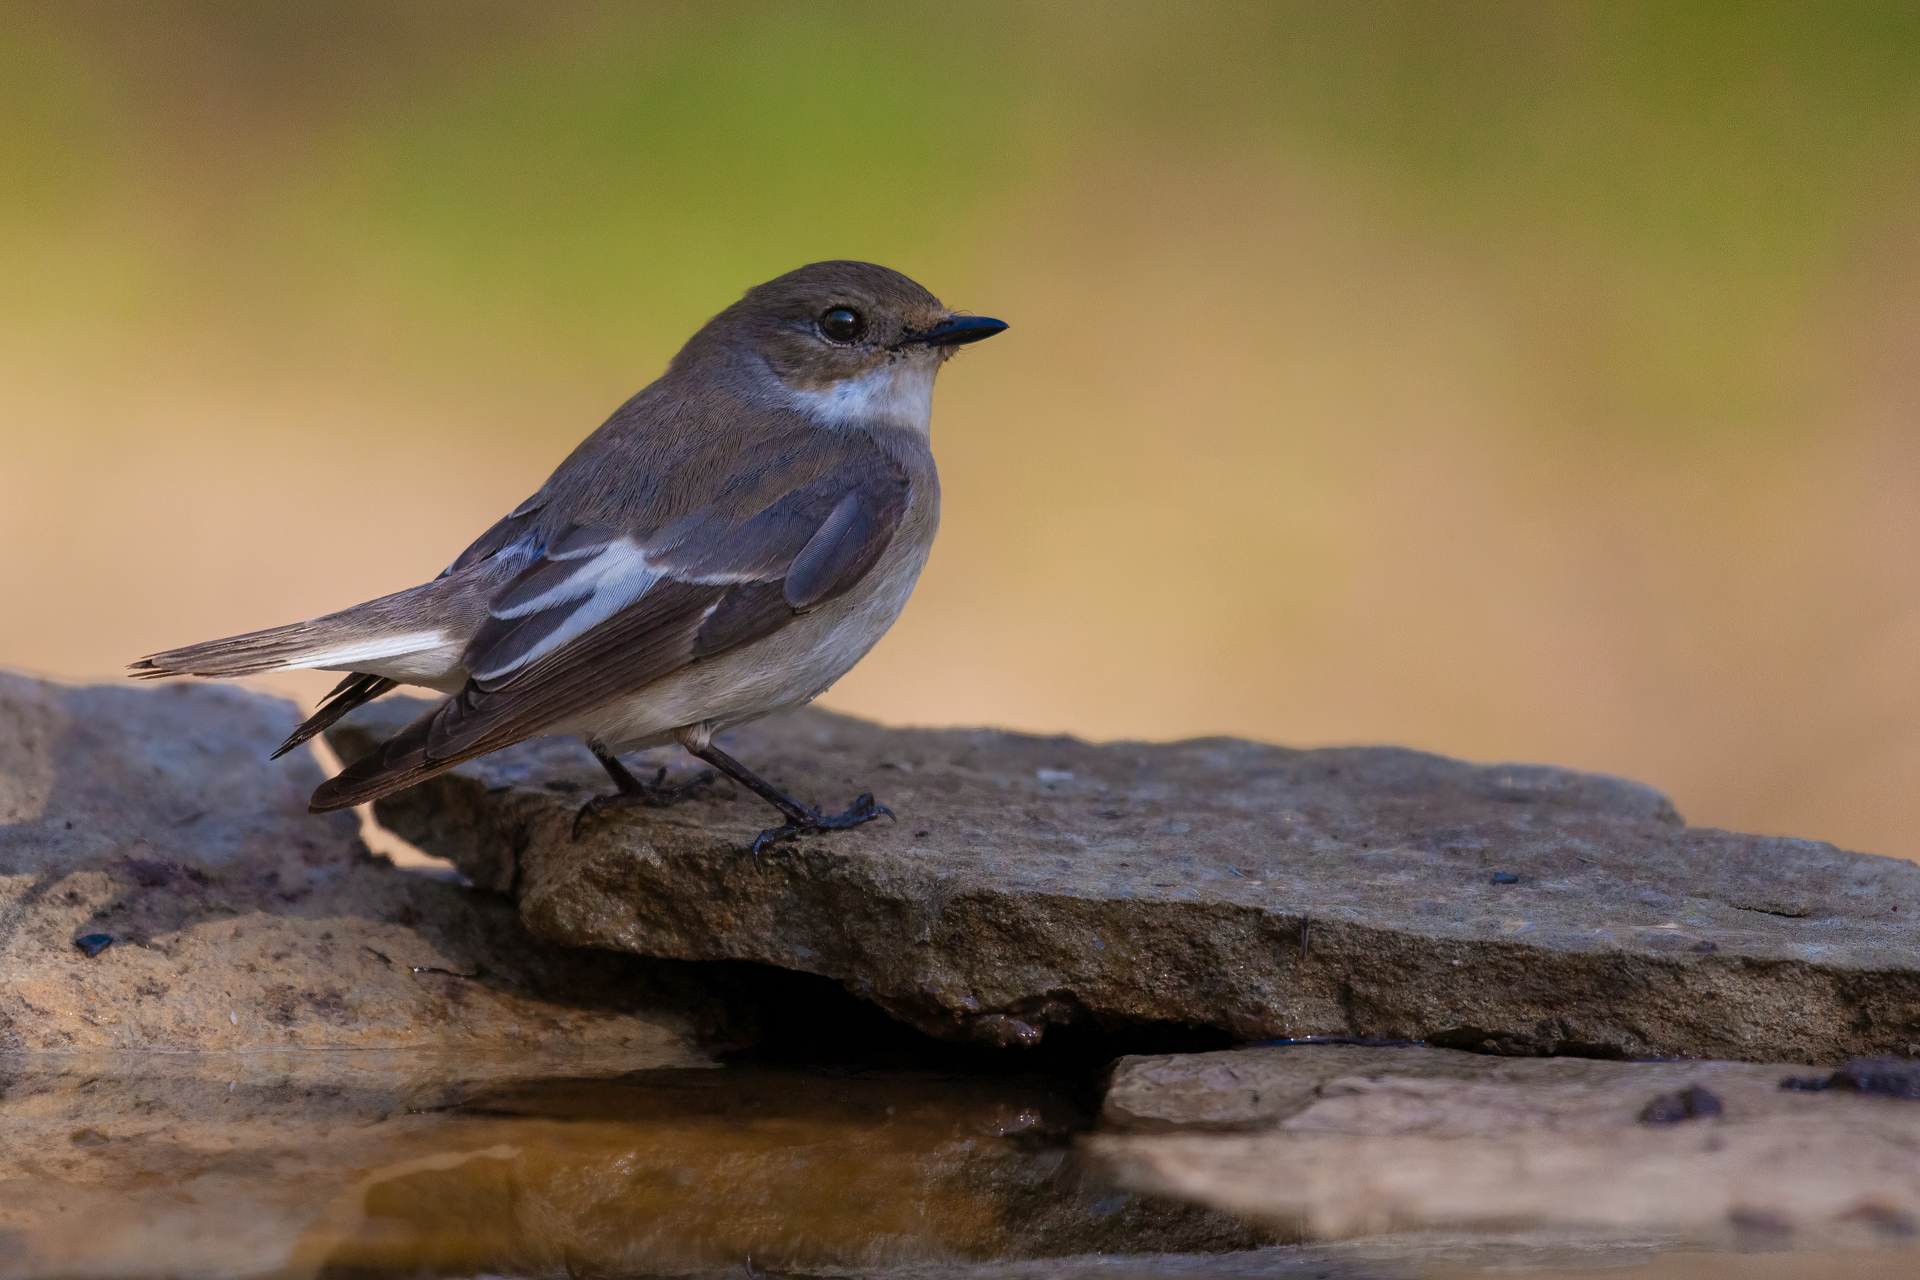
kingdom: Animalia
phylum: Chordata
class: Aves
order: Passeriformes
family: Muscicapidae
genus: Ficedula
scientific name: Ficedula hypoleuca
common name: European pied flycatcher
